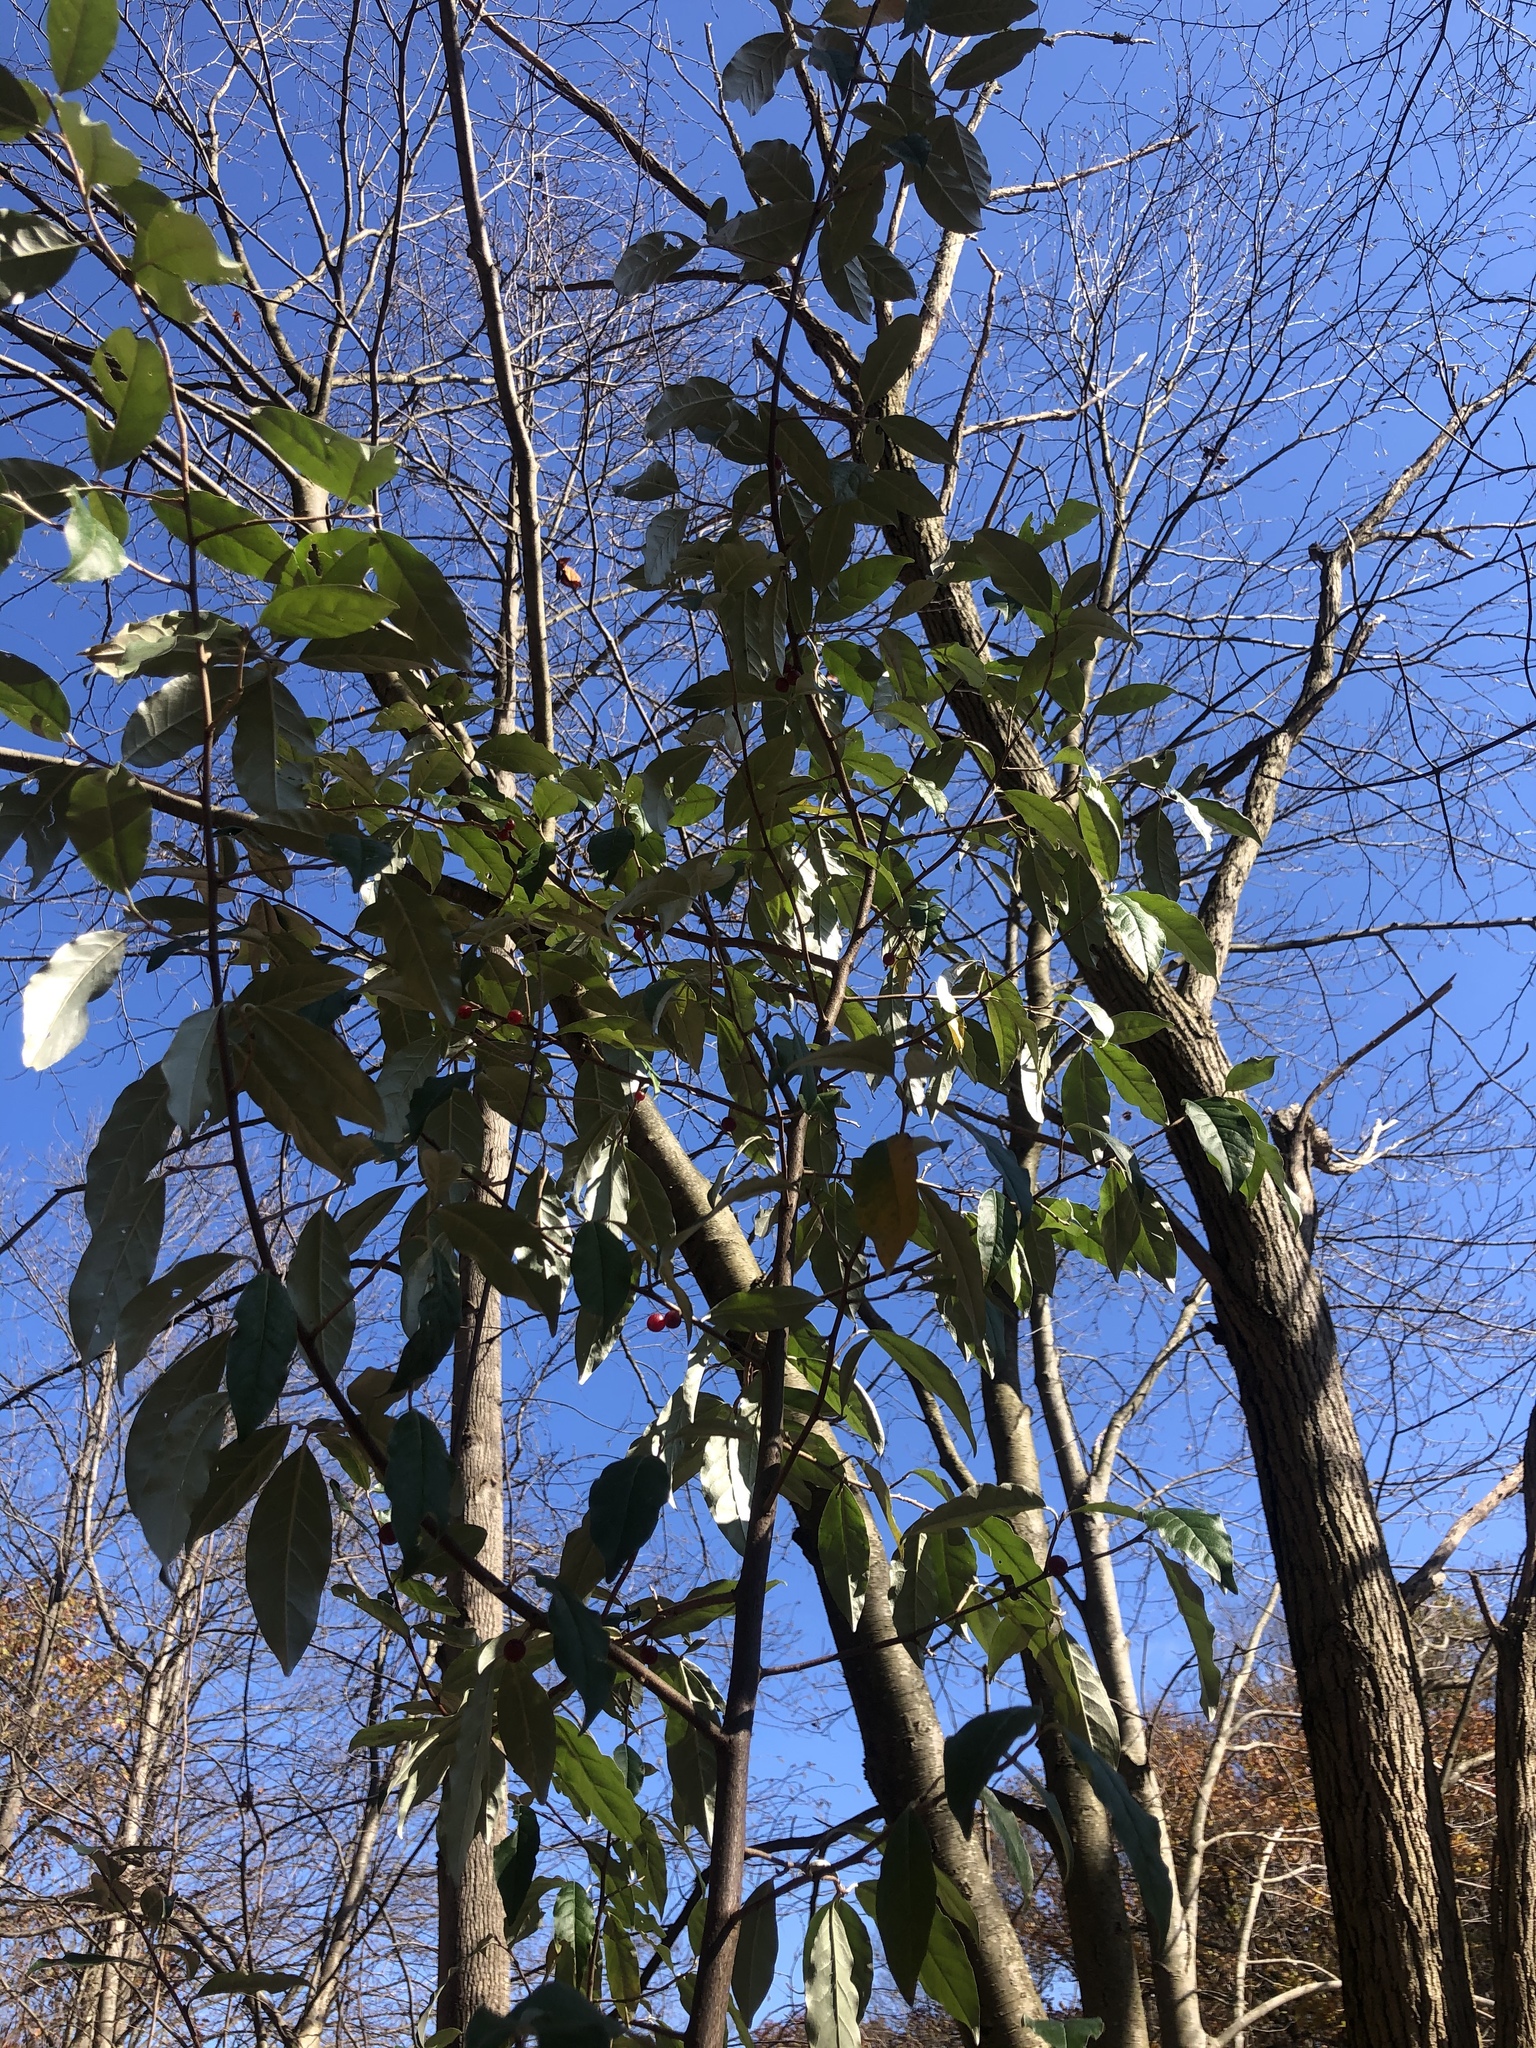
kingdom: Plantae
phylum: Tracheophyta
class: Magnoliopsida
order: Rosales
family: Elaeagnaceae
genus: Elaeagnus
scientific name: Elaeagnus umbellata
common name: Autumn olive
